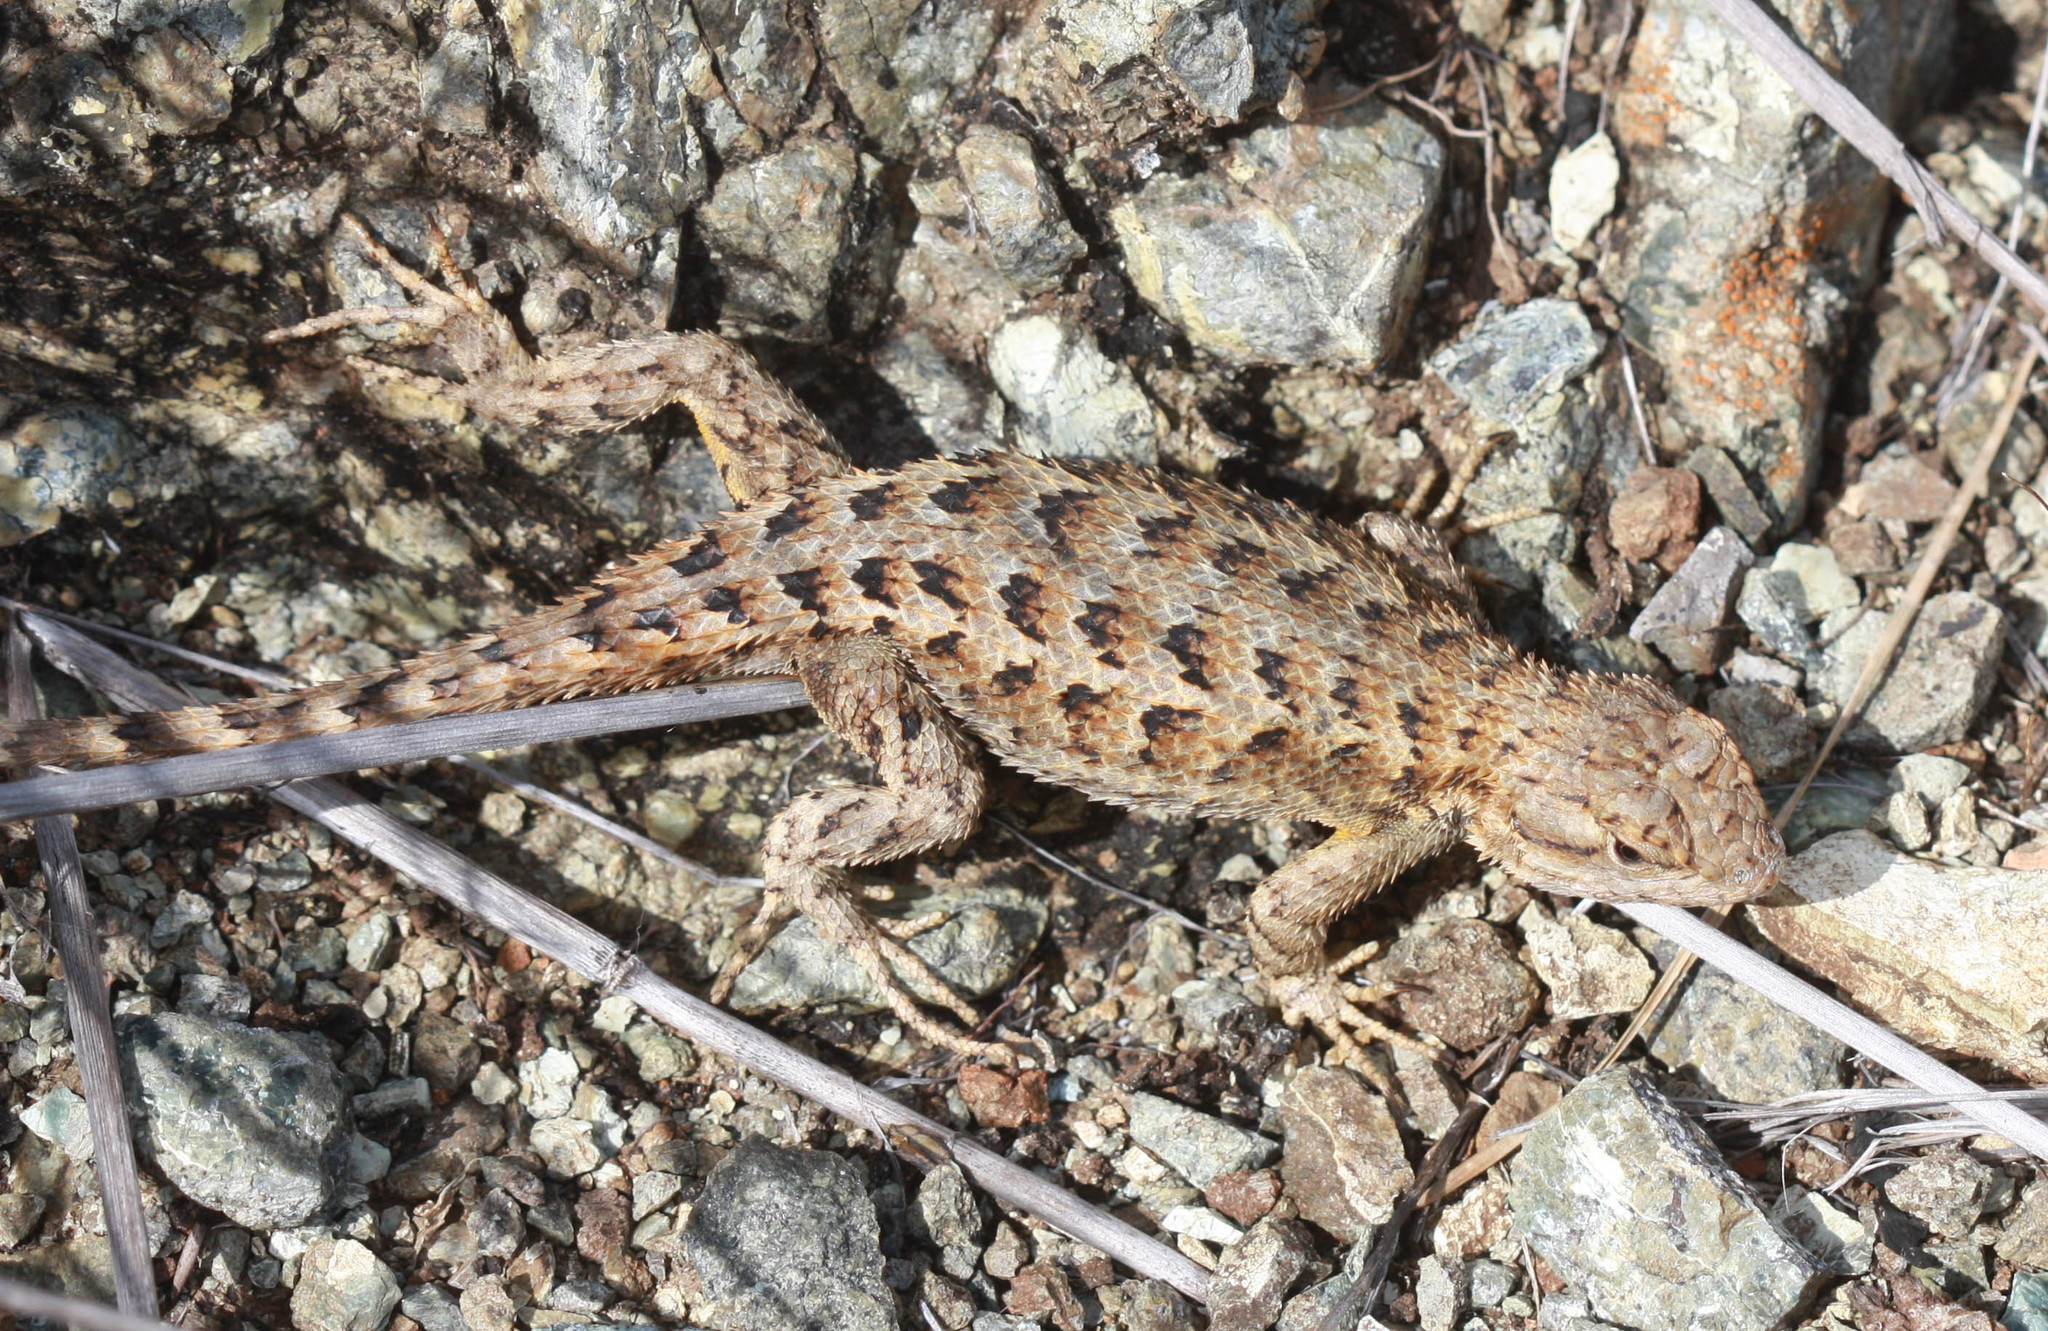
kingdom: Animalia
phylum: Chordata
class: Squamata
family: Phrynosomatidae
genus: Sceloporus
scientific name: Sceloporus occidentalis
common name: Western fence lizard
